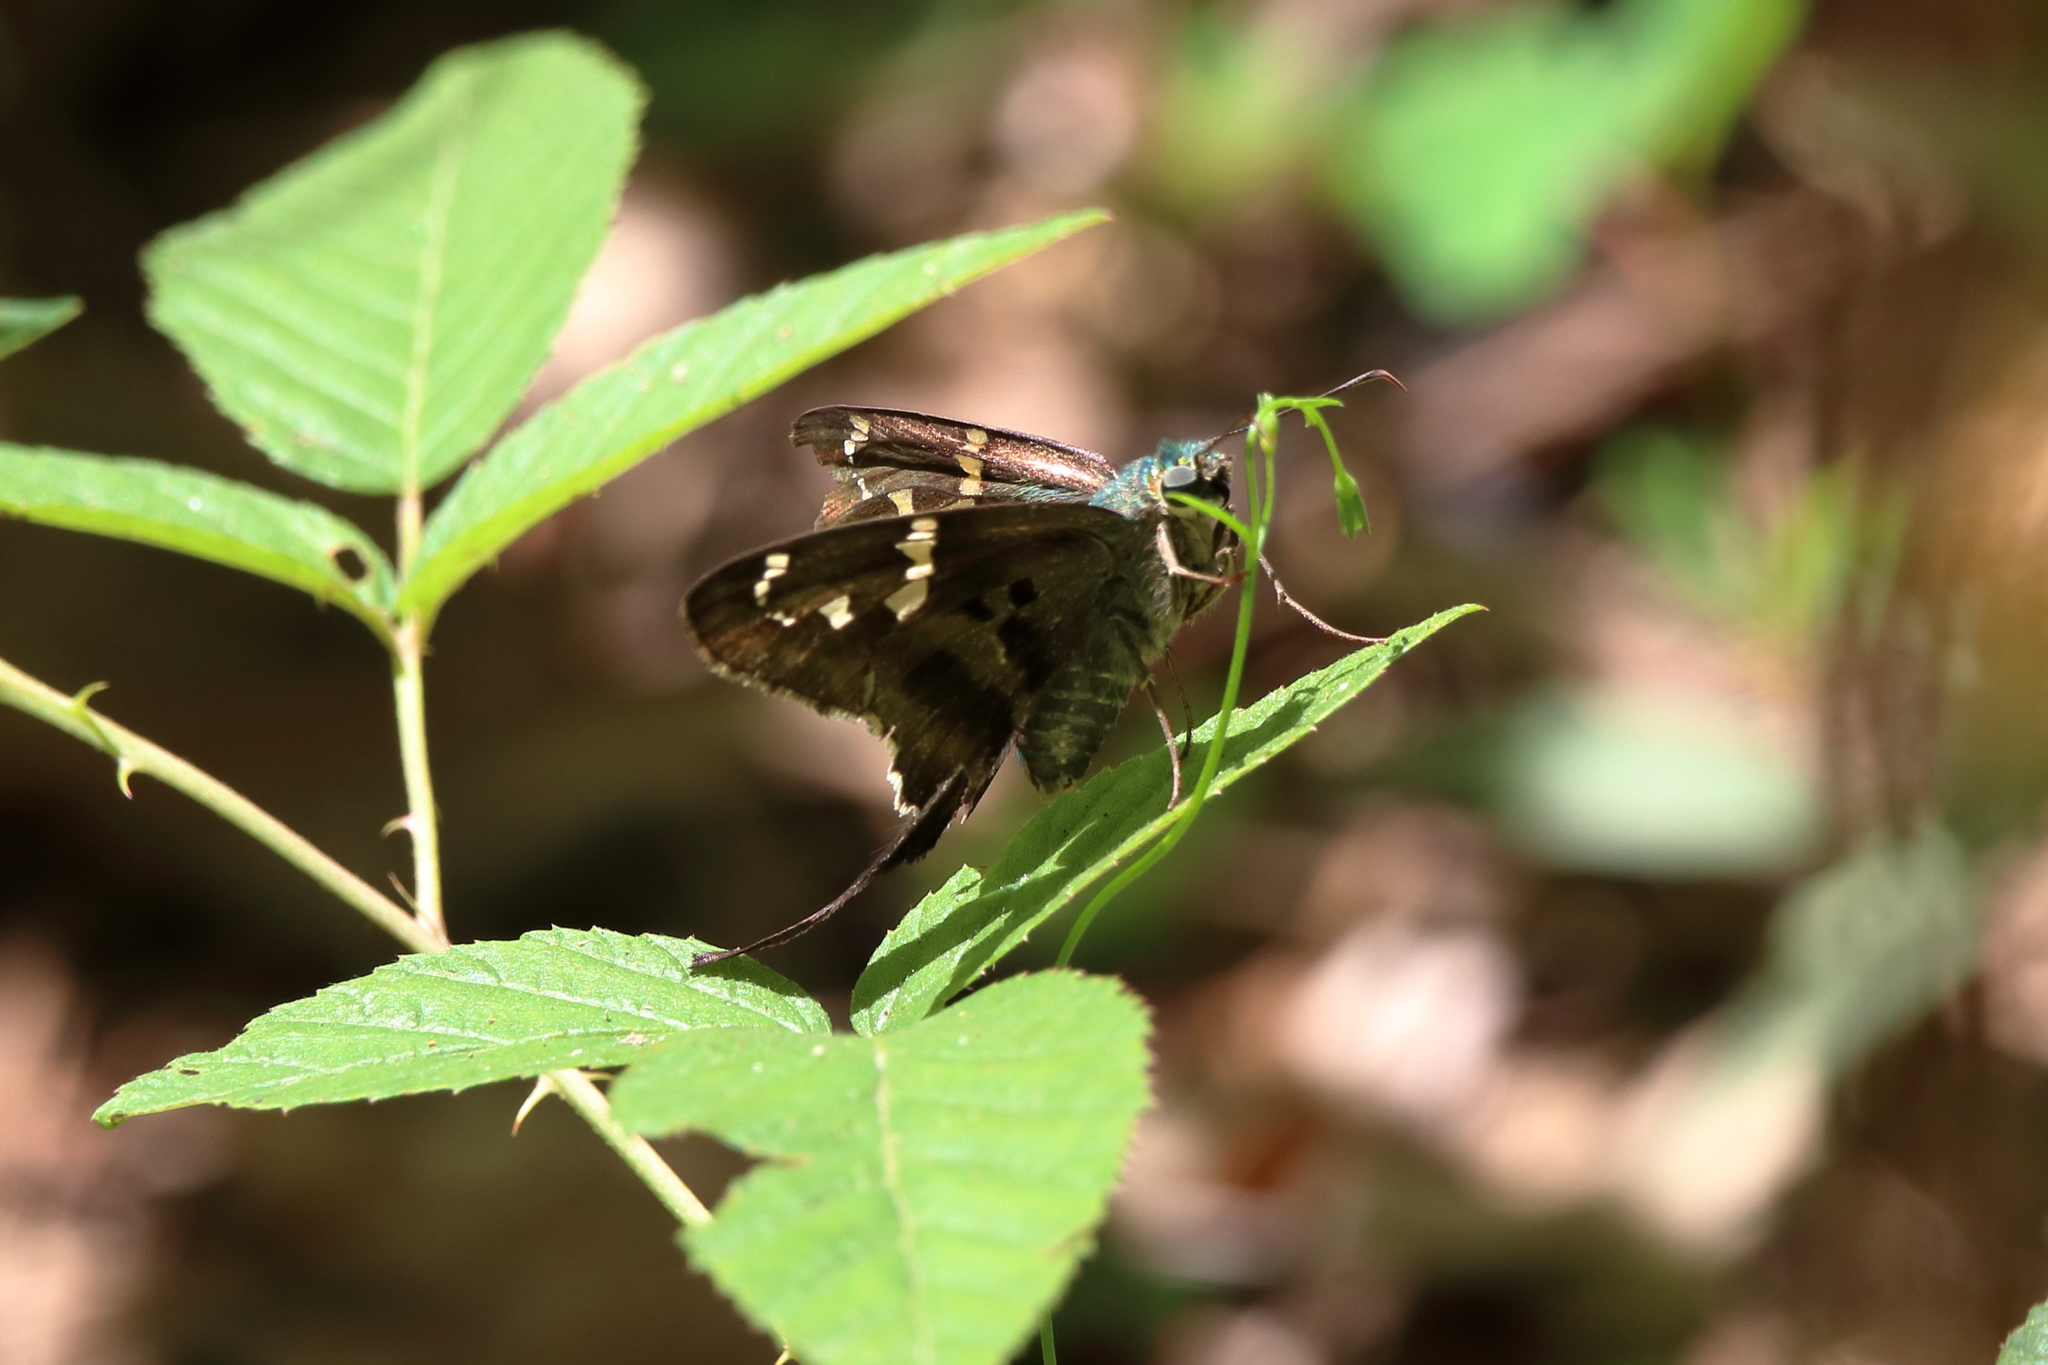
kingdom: Animalia
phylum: Arthropoda
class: Insecta
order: Lepidoptera
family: Hesperiidae
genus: Urbanus
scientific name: Urbanus proteus
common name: Long-tailed skipper
